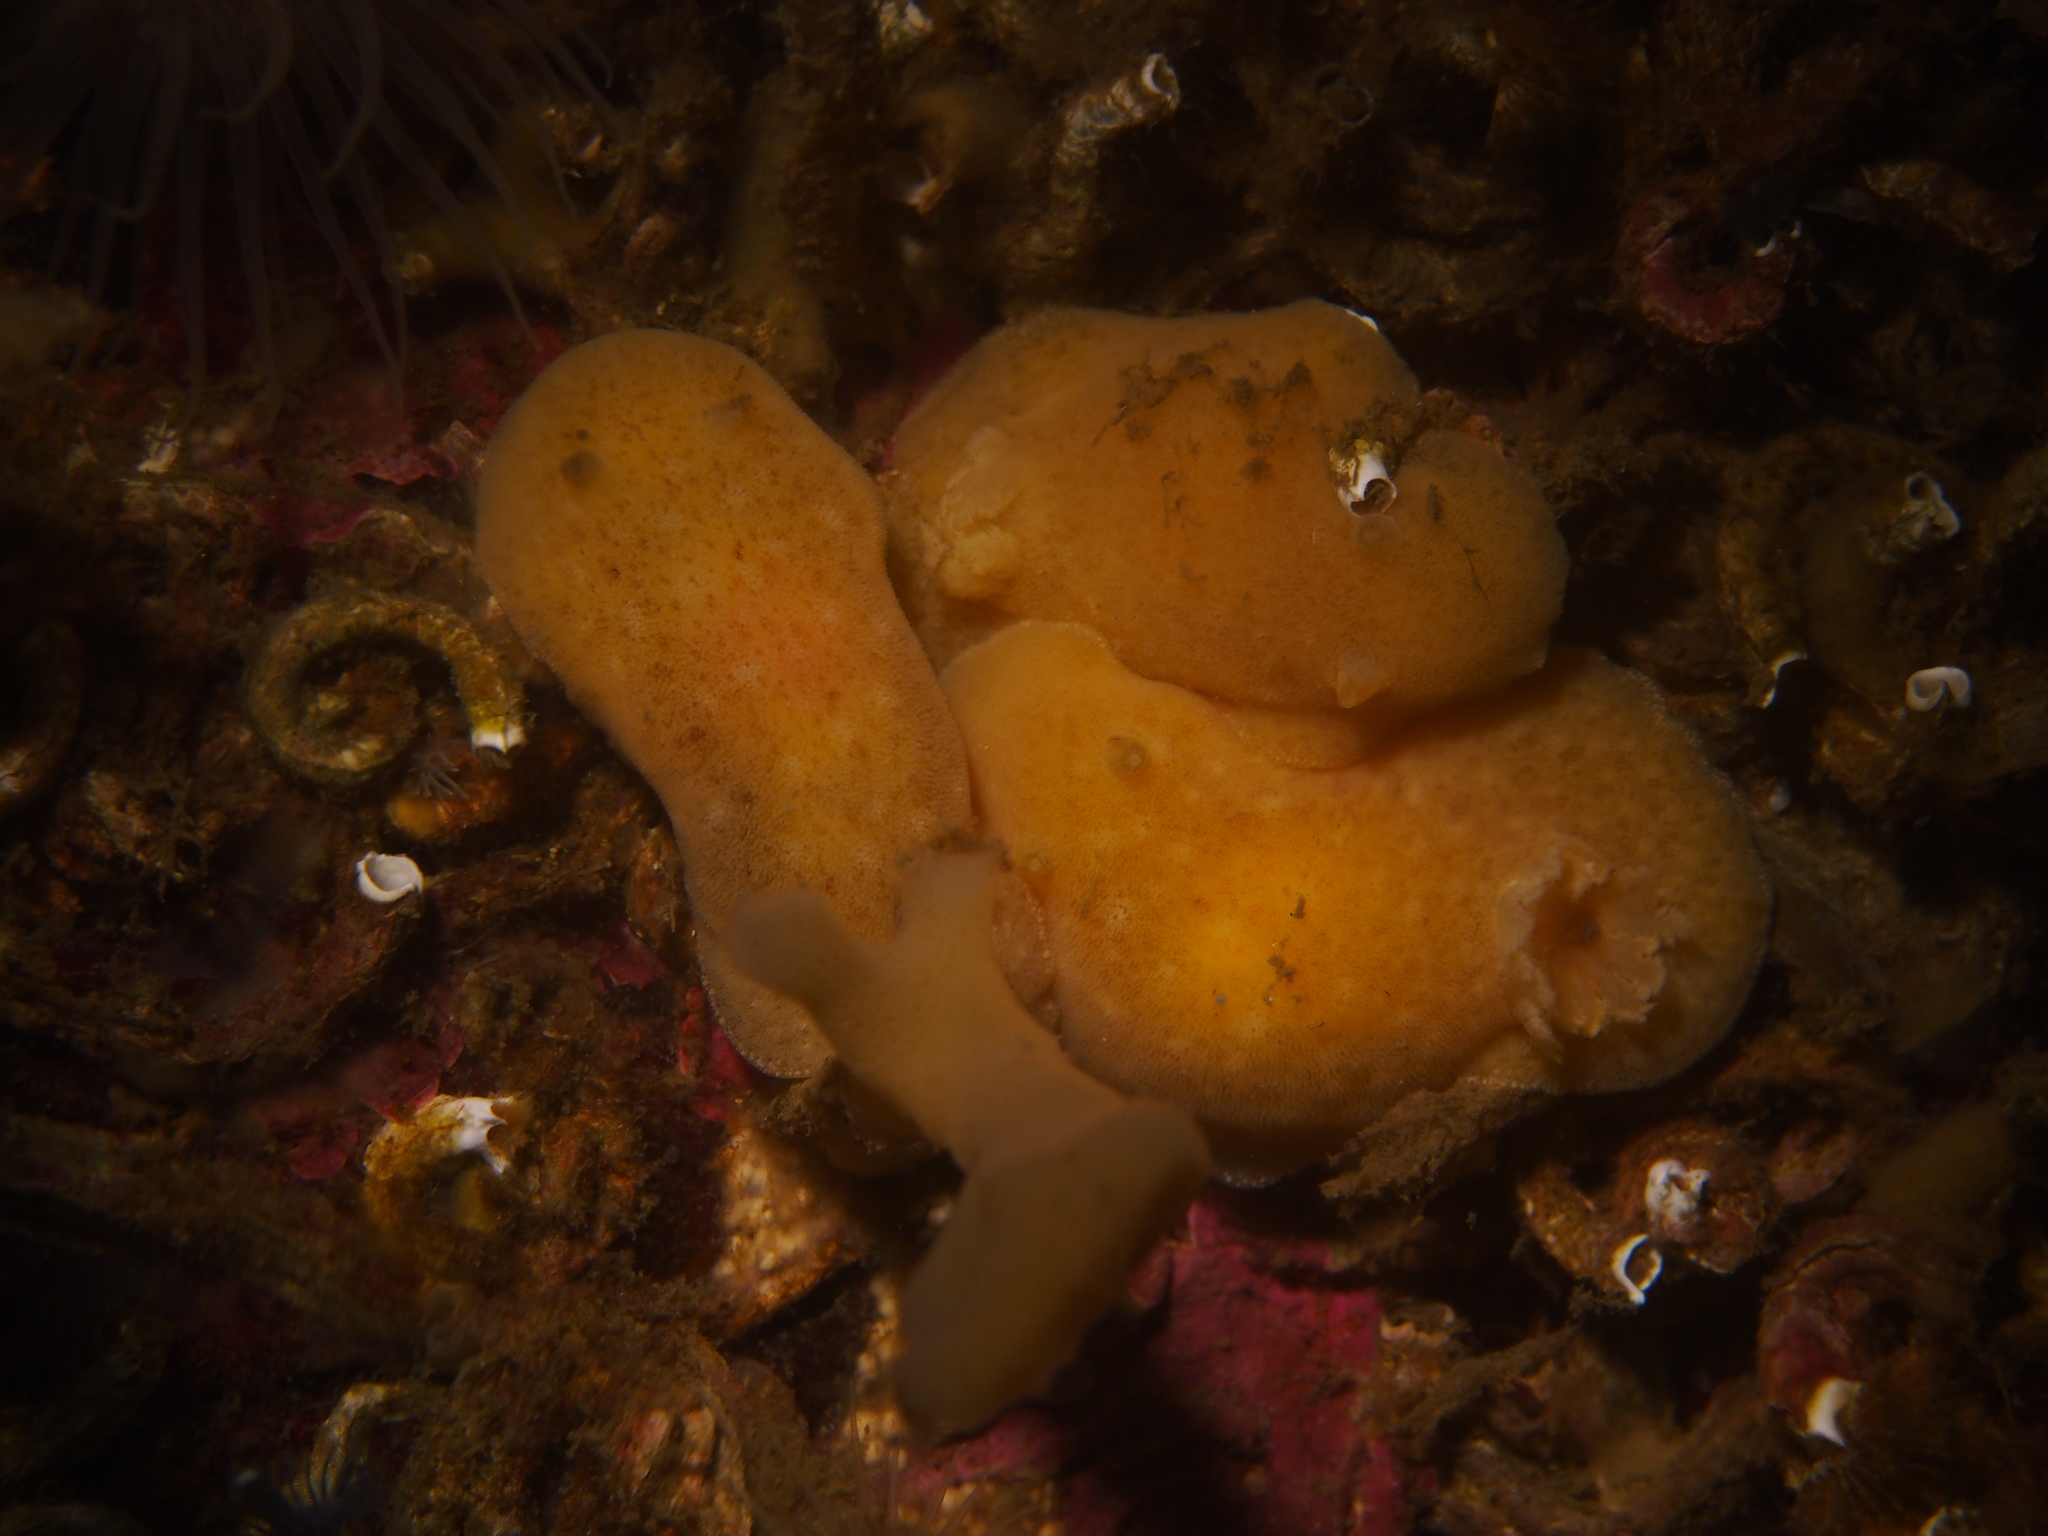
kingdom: Animalia
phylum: Mollusca
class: Gastropoda
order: Nudibranchia
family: Discodorididae
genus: Jorunna
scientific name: Jorunna tomentosa
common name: Grey sea slug
